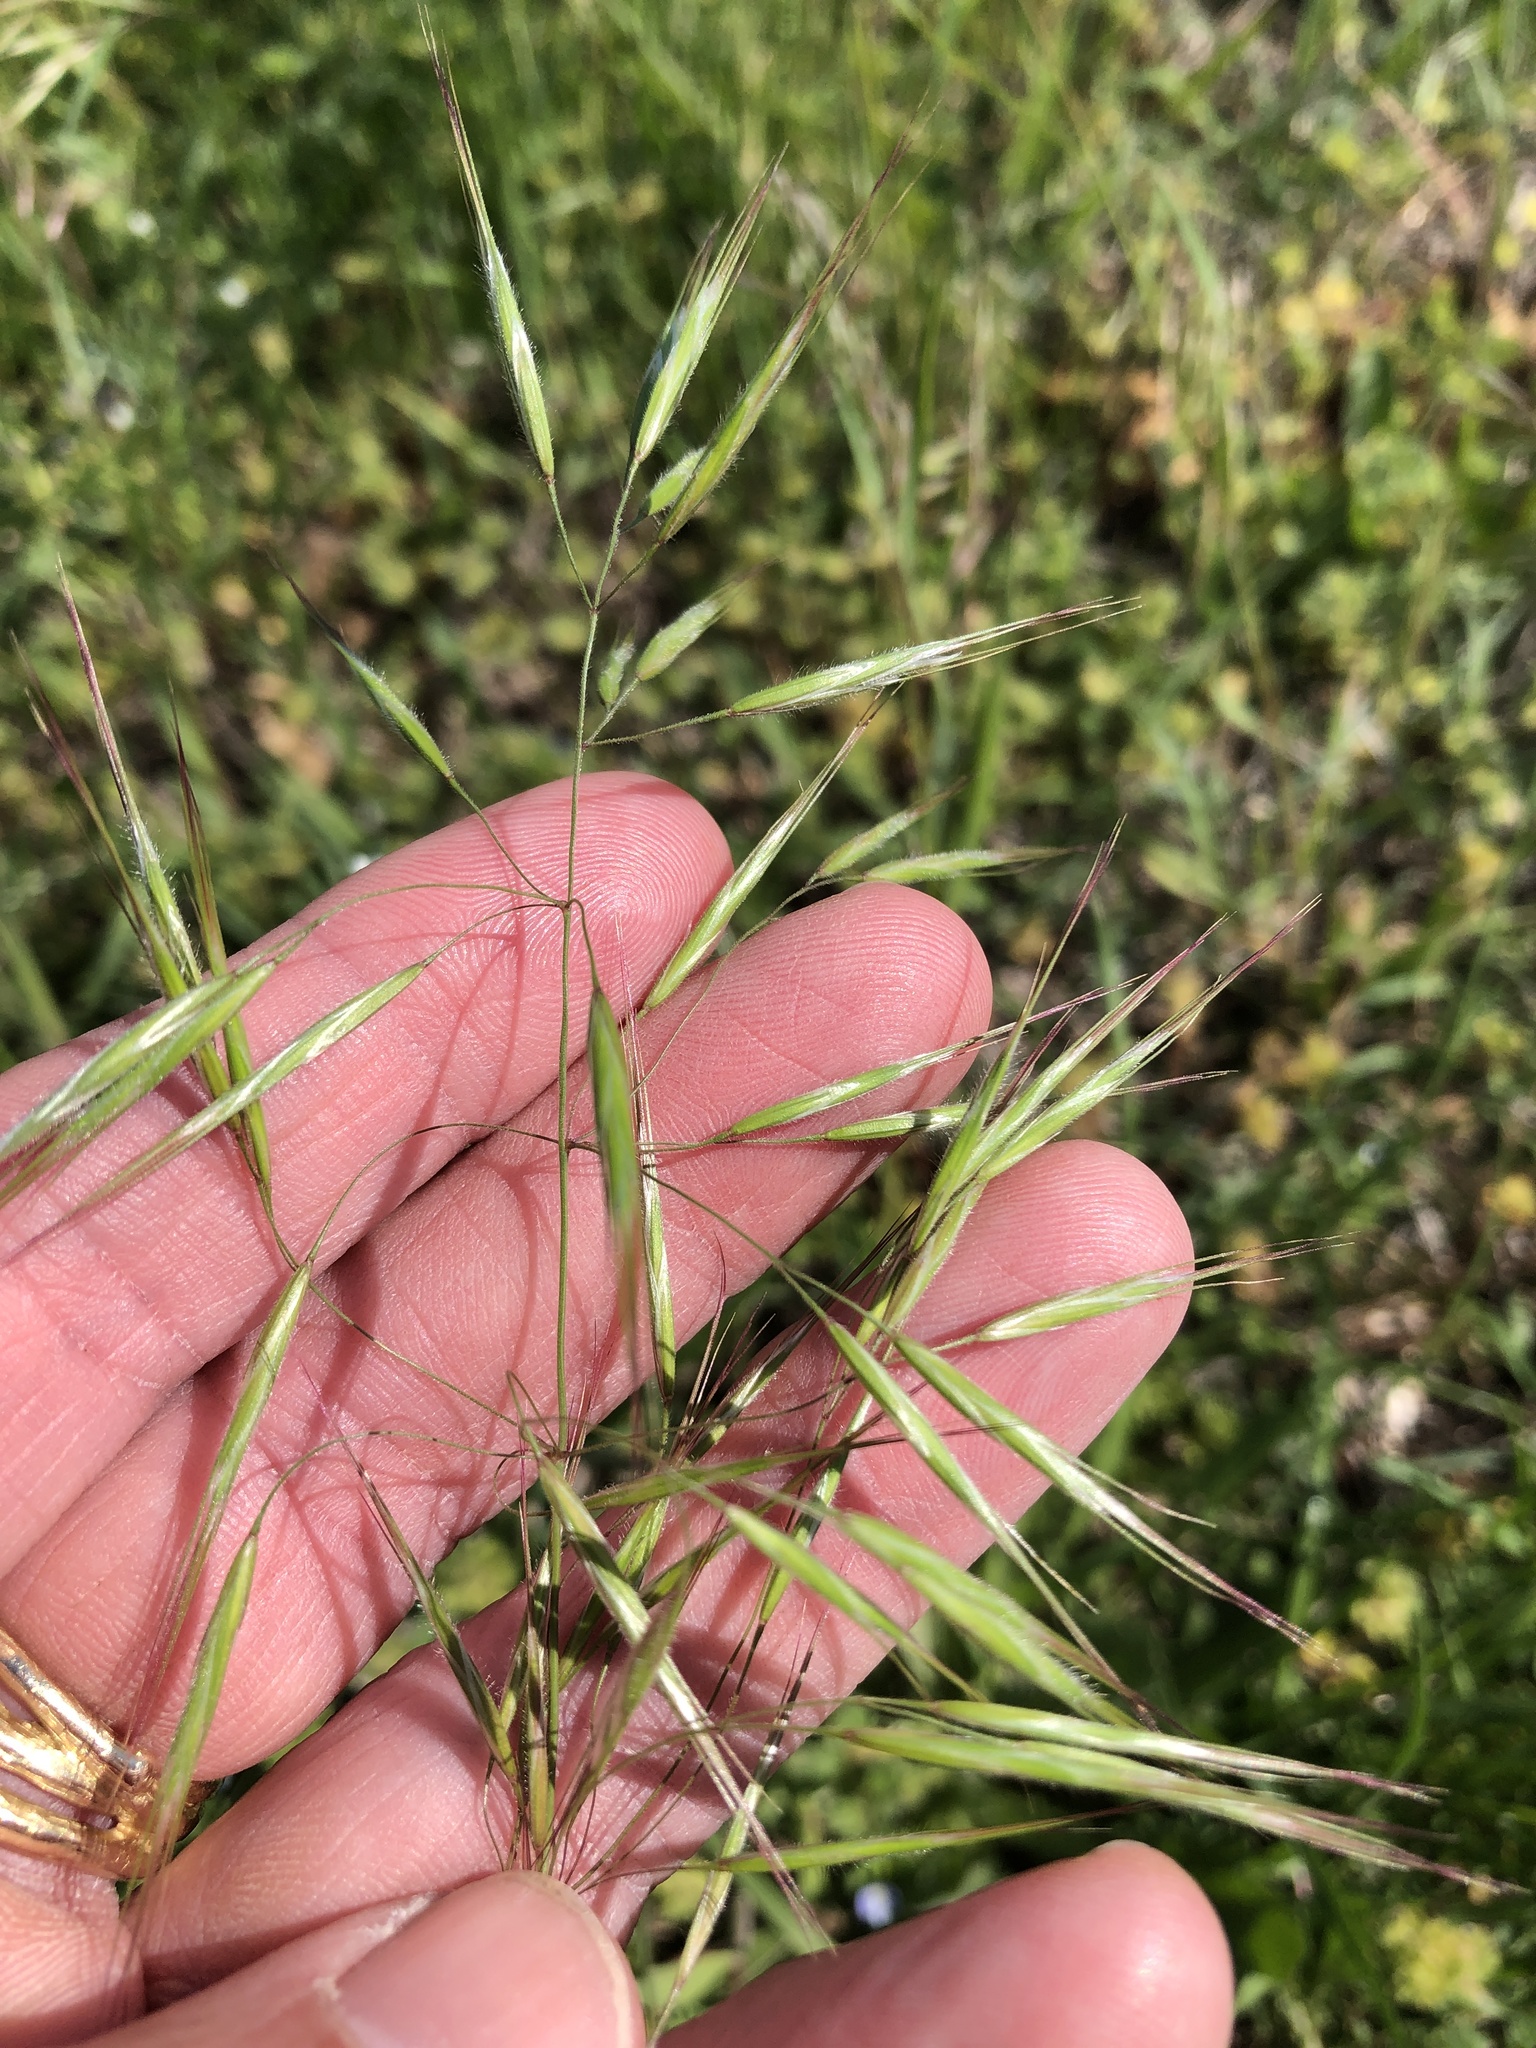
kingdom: Plantae
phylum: Tracheophyta
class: Liliopsida
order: Poales
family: Poaceae
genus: Bromus
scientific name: Bromus tectorum
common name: Cheatgrass
